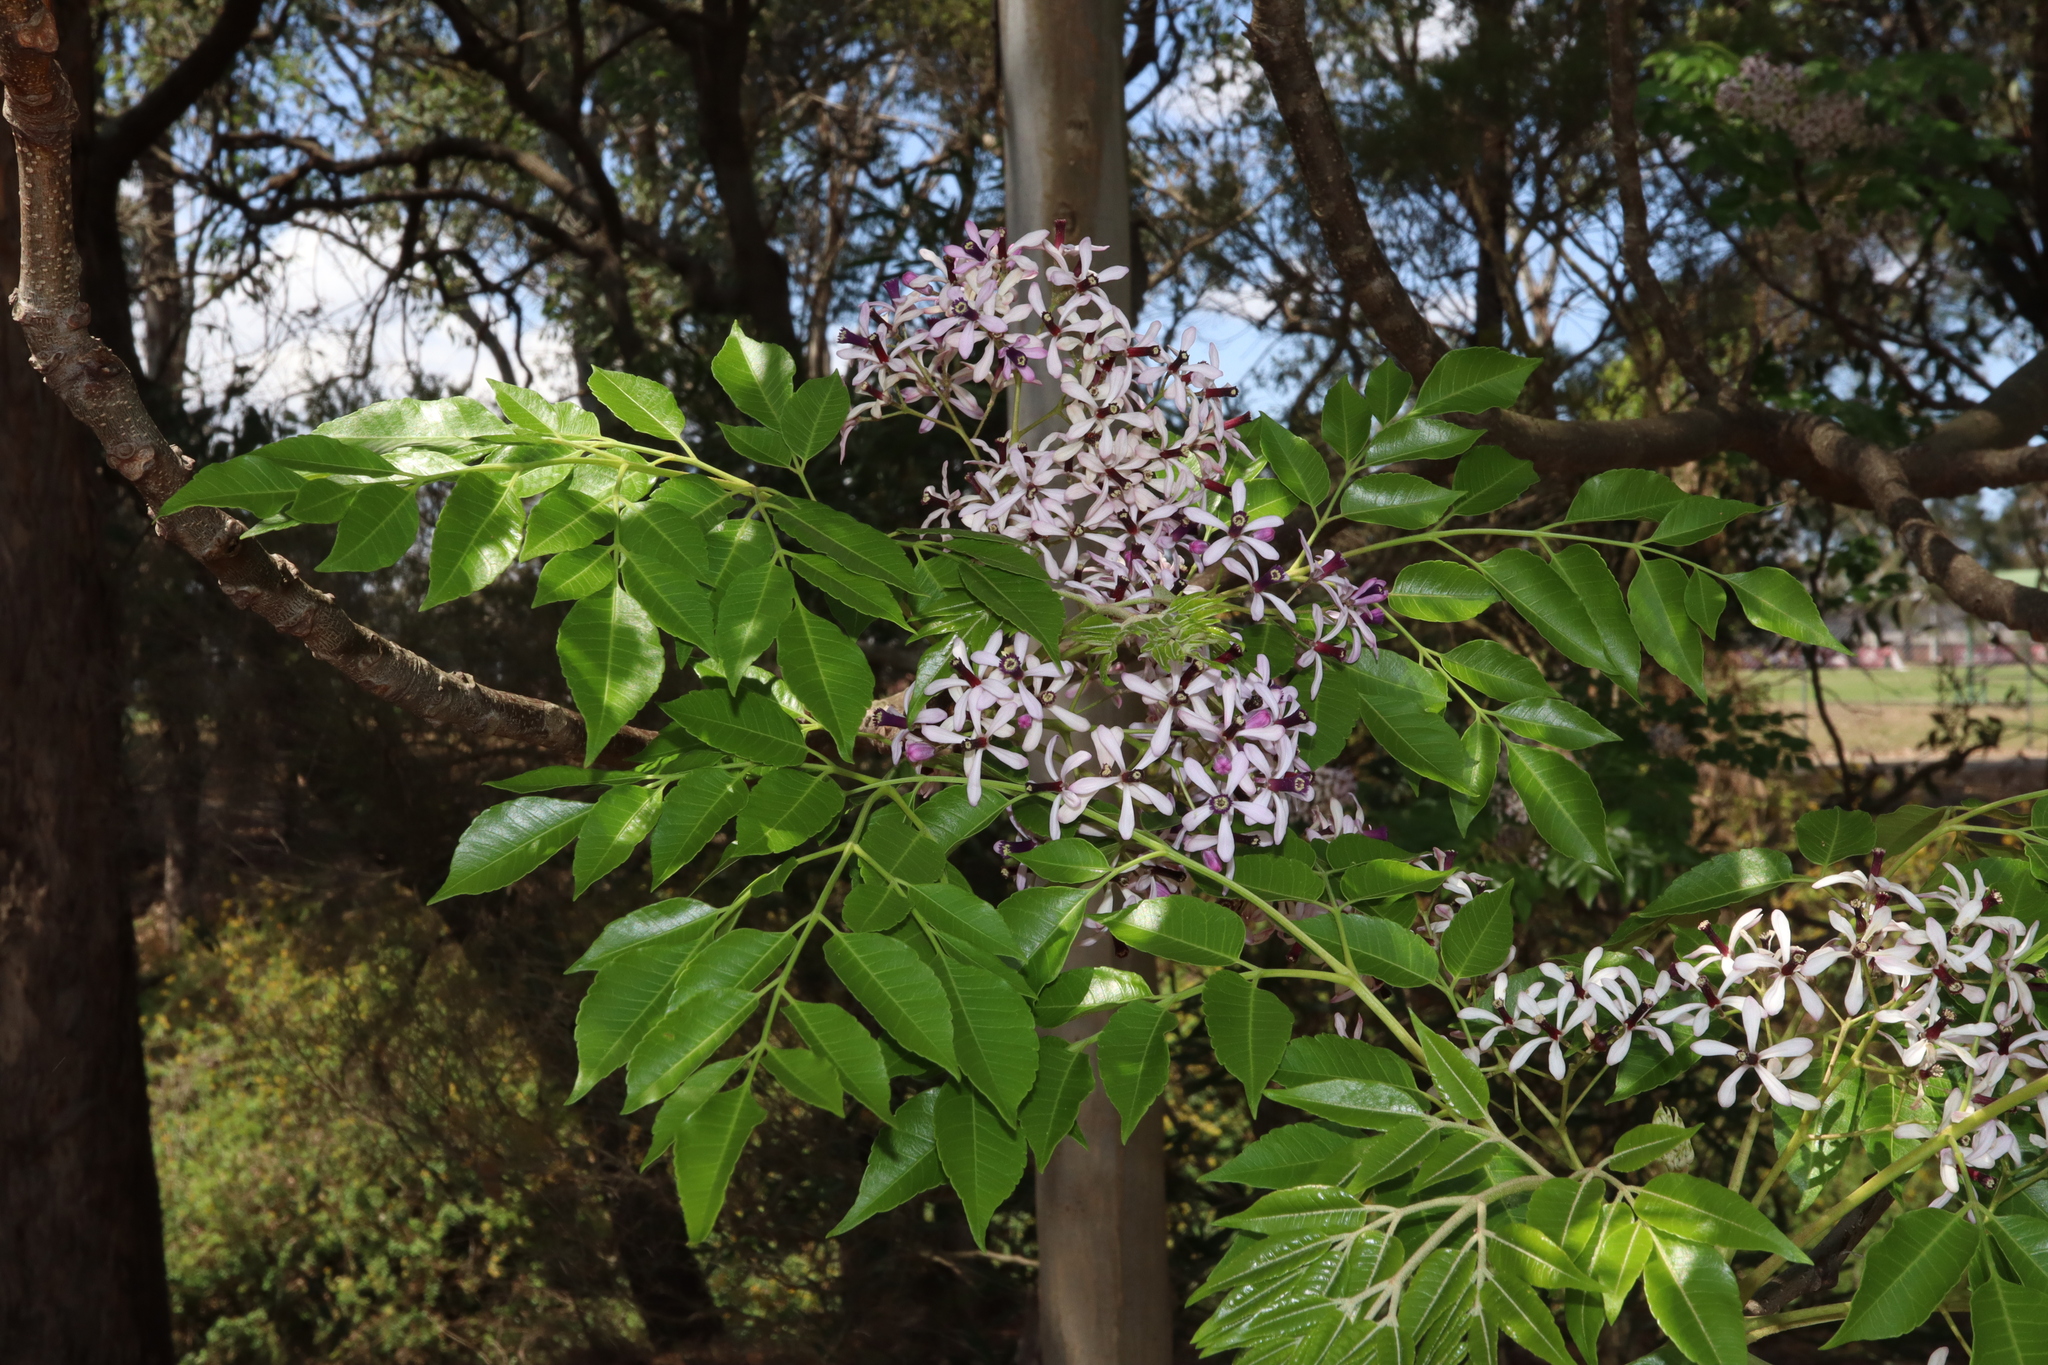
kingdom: Plantae
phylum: Tracheophyta
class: Magnoliopsida
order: Sapindales
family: Meliaceae
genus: Melia
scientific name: Melia azedarach
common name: Chinaberrytree
